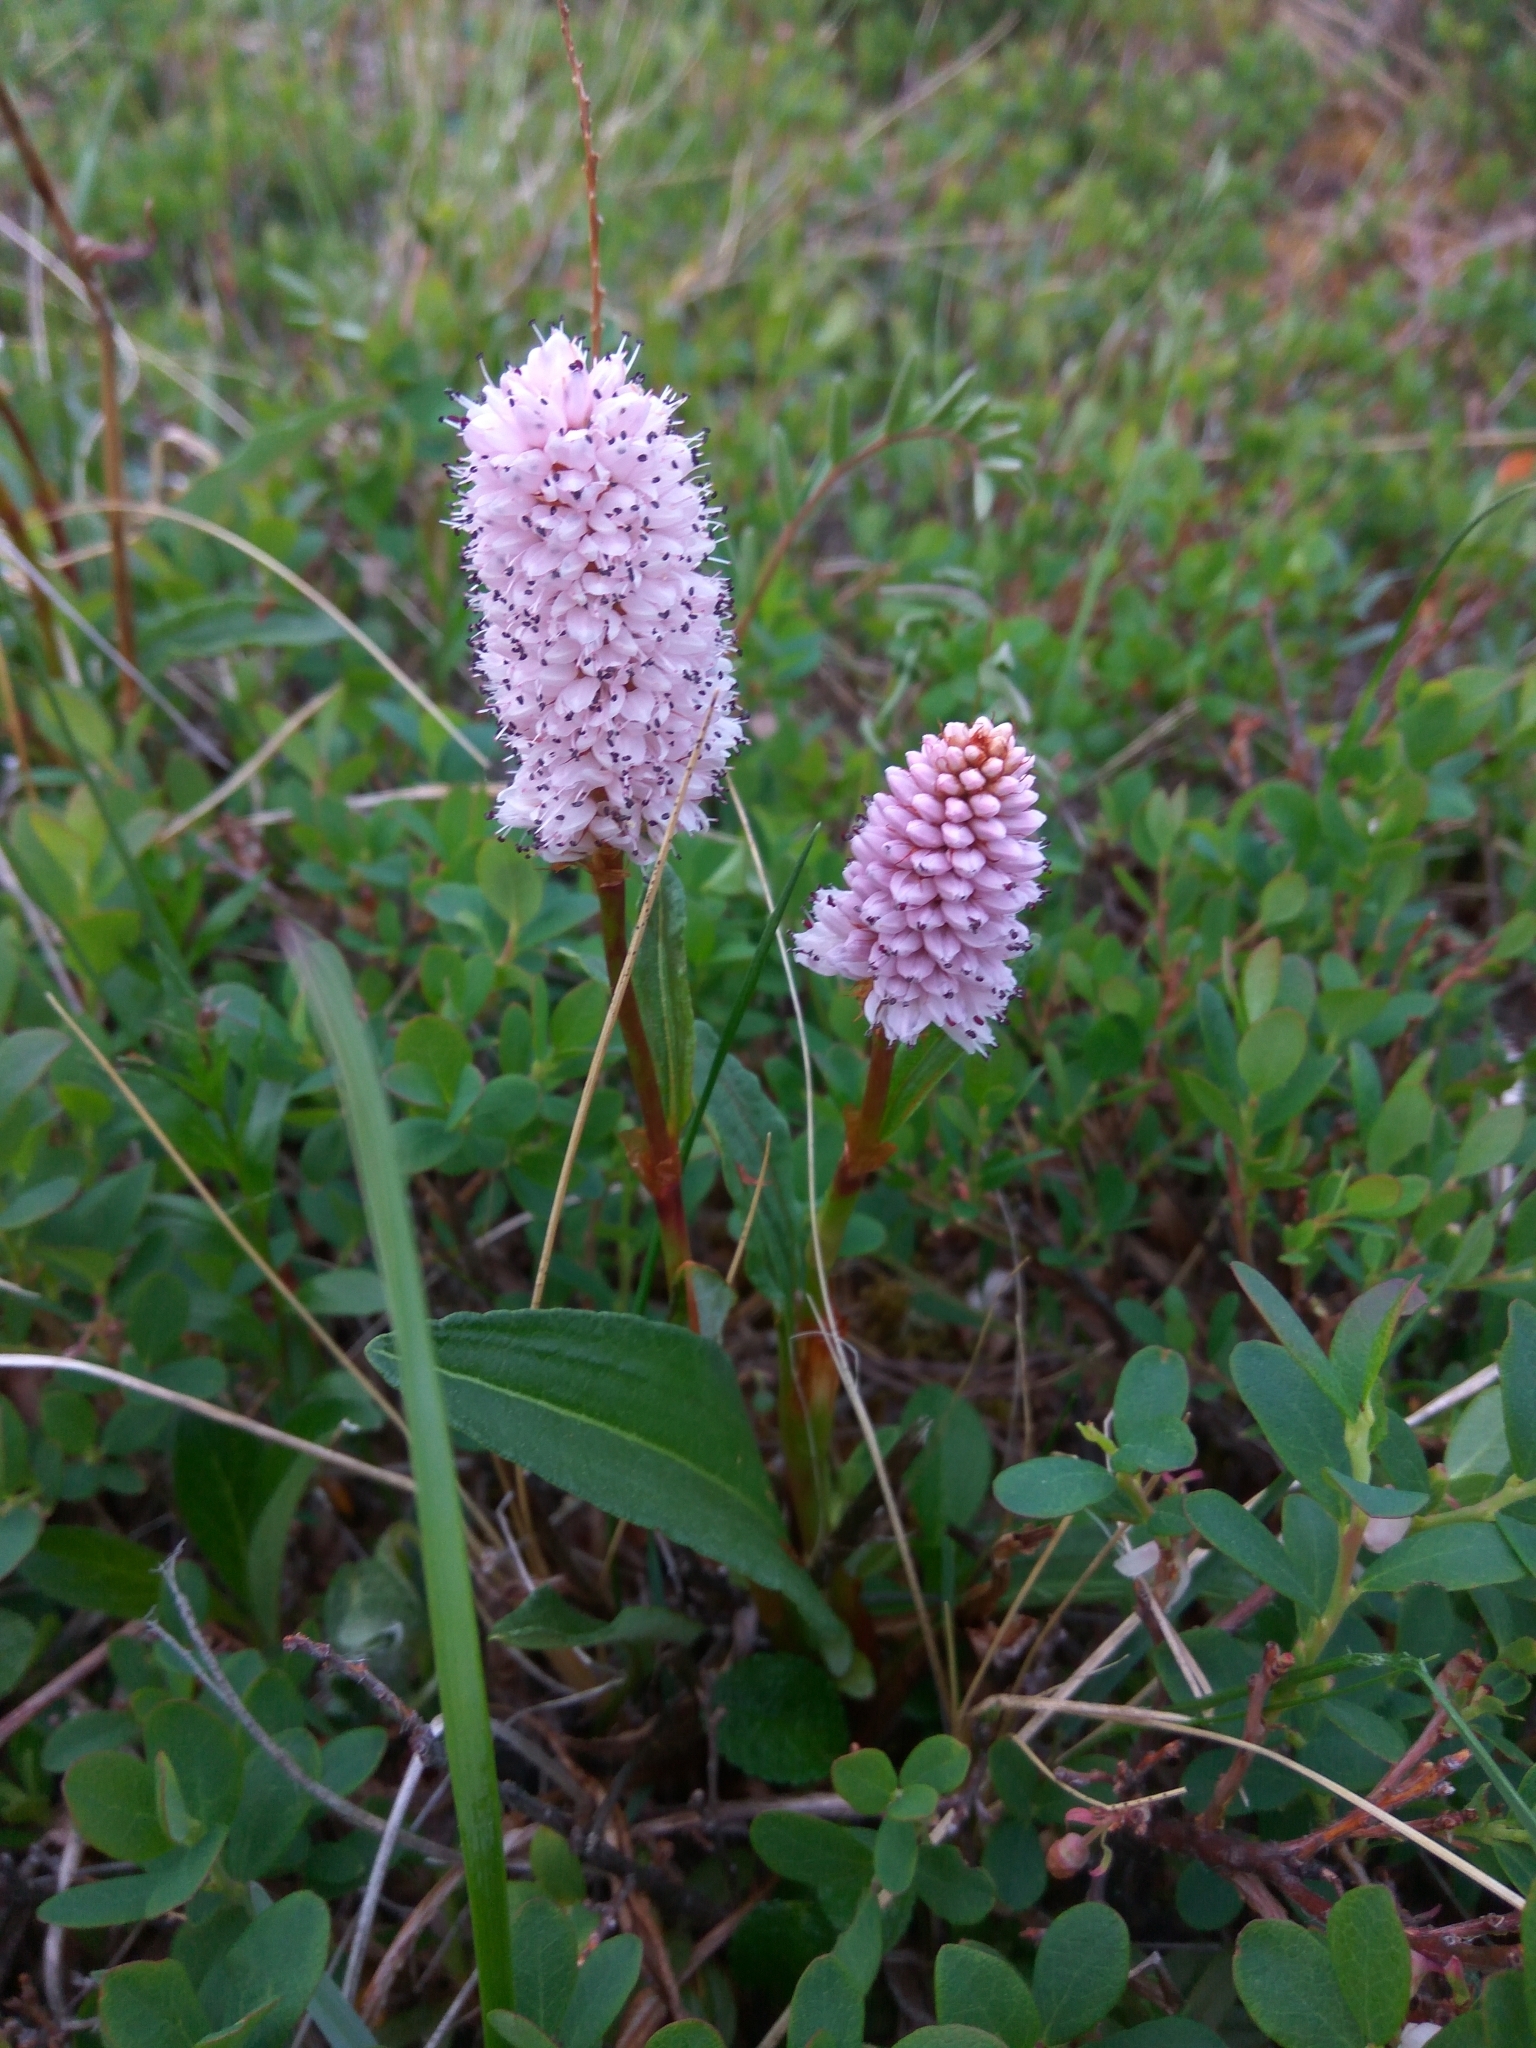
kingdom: Plantae
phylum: Tracheophyta
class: Magnoliopsida
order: Caryophyllales
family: Polygonaceae
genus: Bistorta
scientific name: Bistorta plumosa
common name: Meadow bistort
